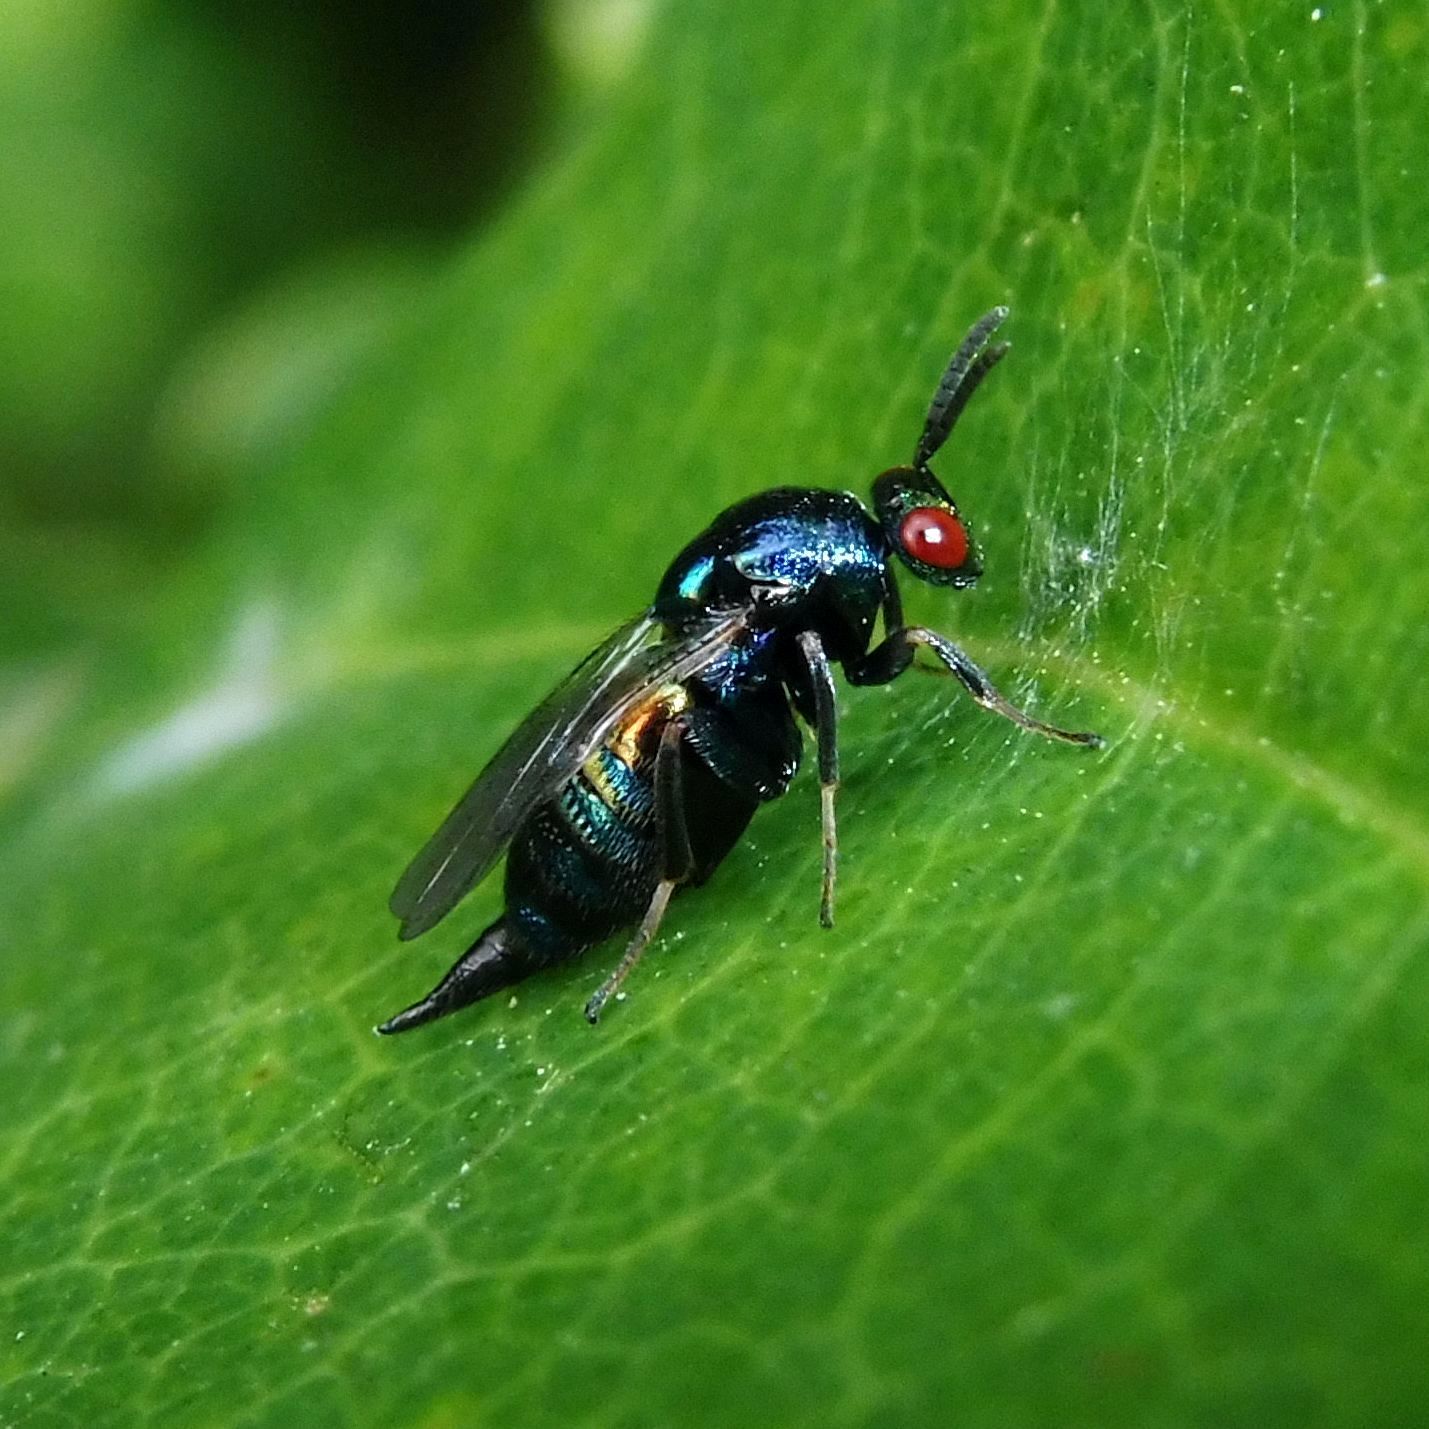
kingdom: Animalia
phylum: Arthropoda
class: Insecta
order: Hymenoptera
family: Ormyridae
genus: Ormyrus
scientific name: Ormyrus nitidulus
